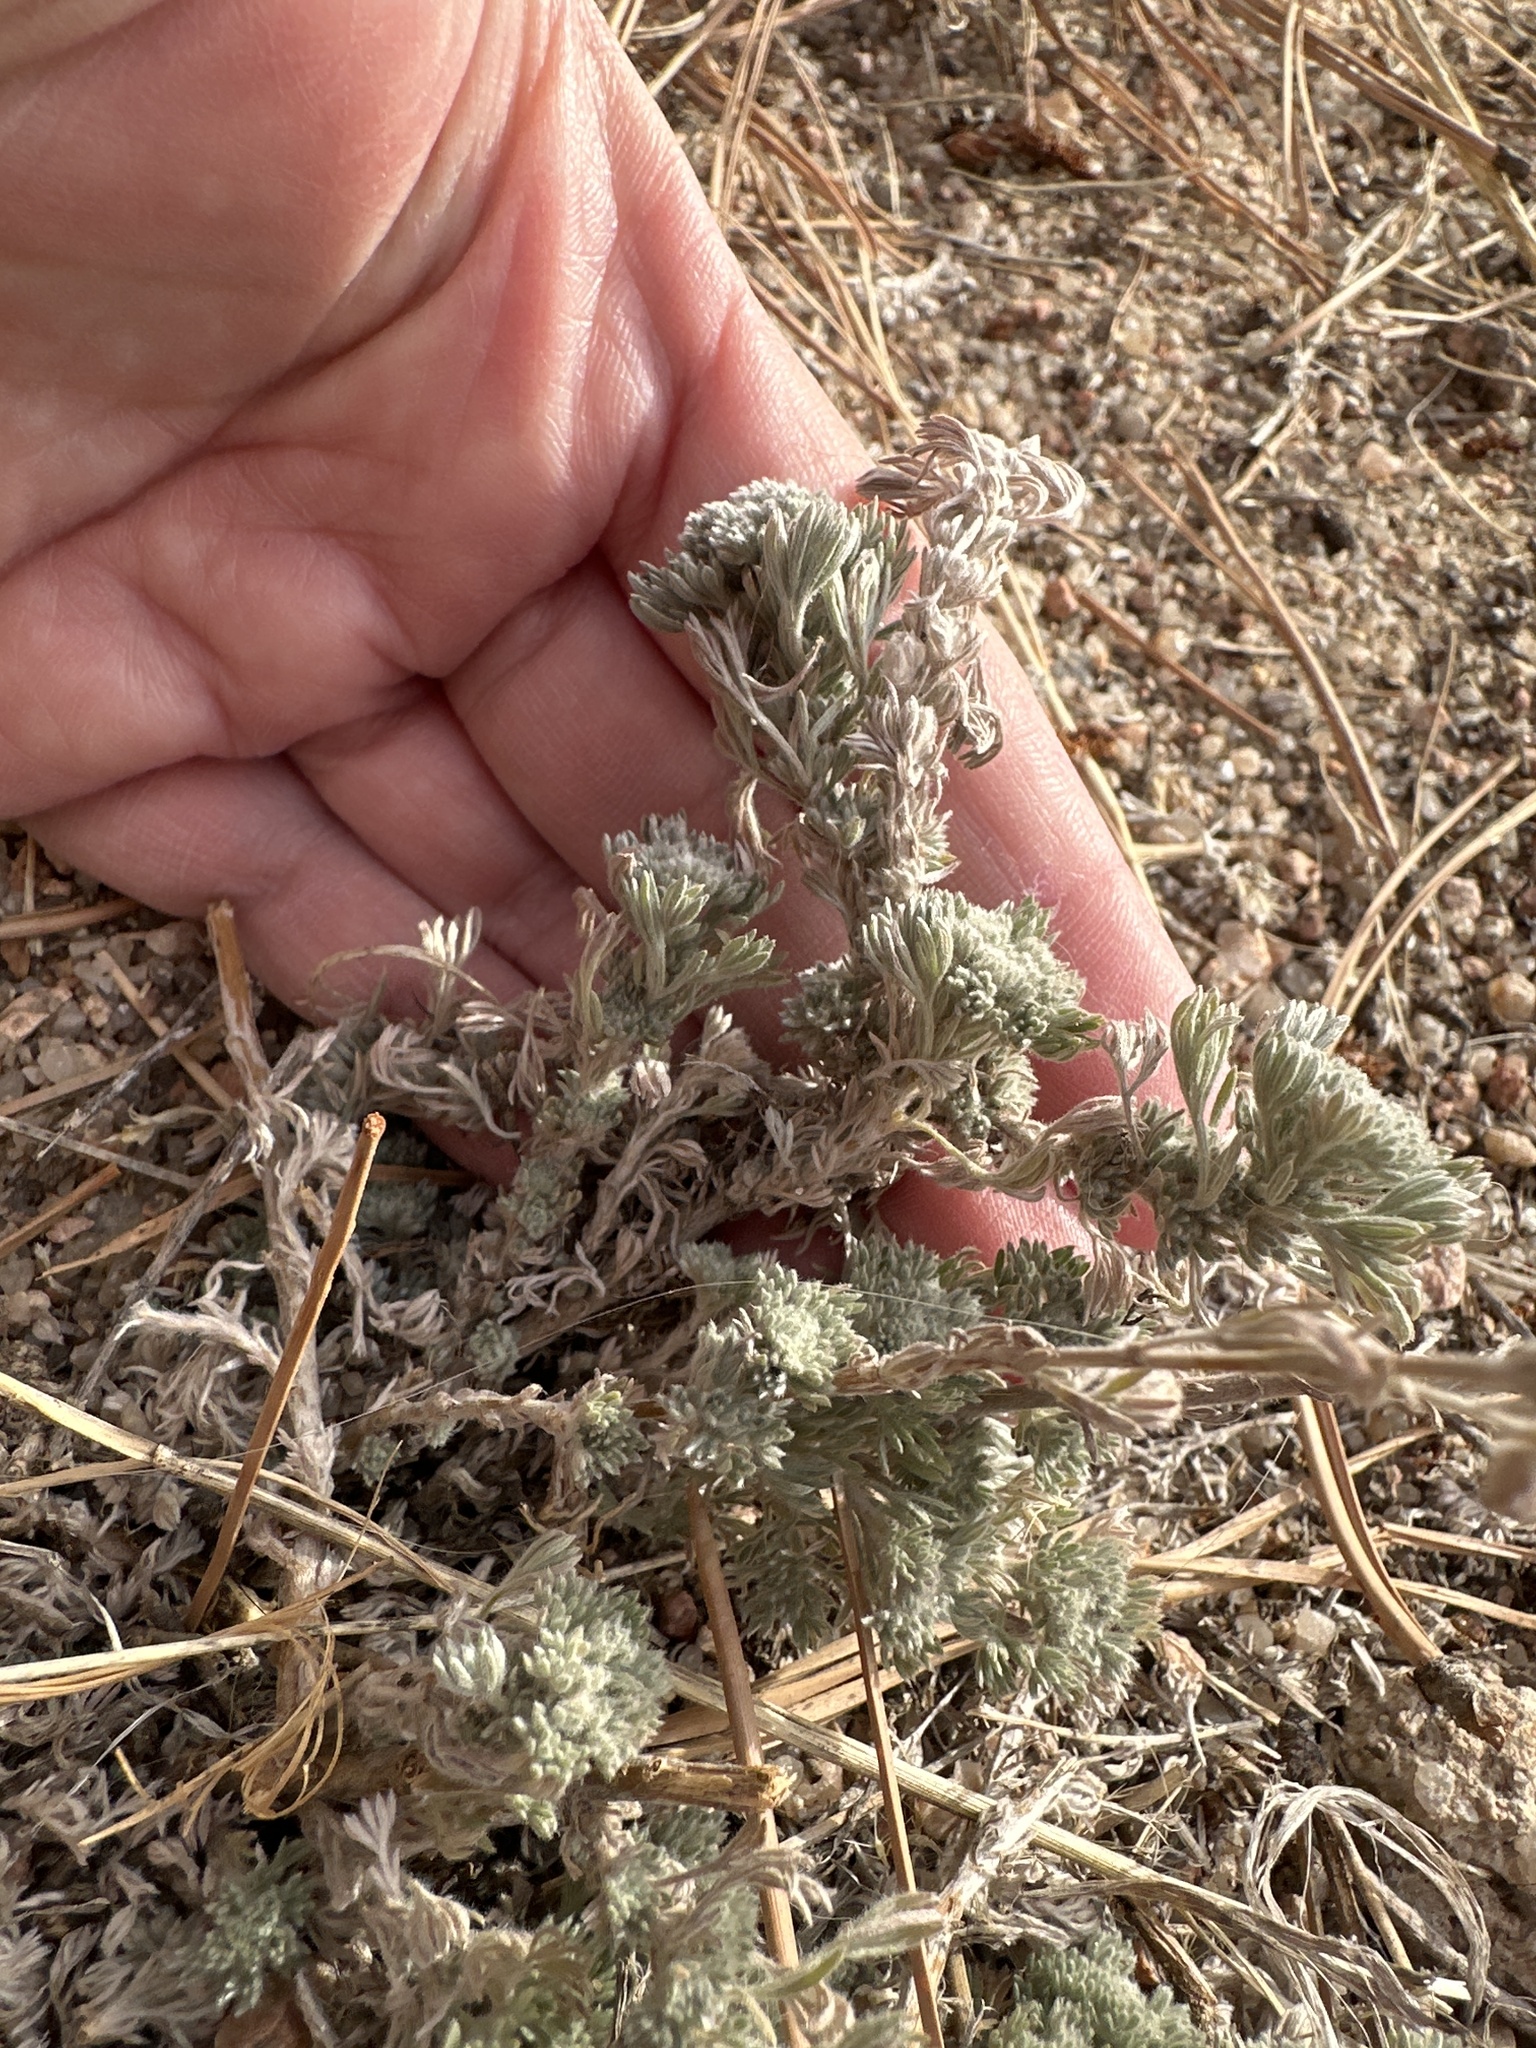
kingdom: Plantae
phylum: Tracheophyta
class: Magnoliopsida
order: Asterales
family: Asteraceae
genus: Artemisia
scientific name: Artemisia frigida
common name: Prairie sagewort
